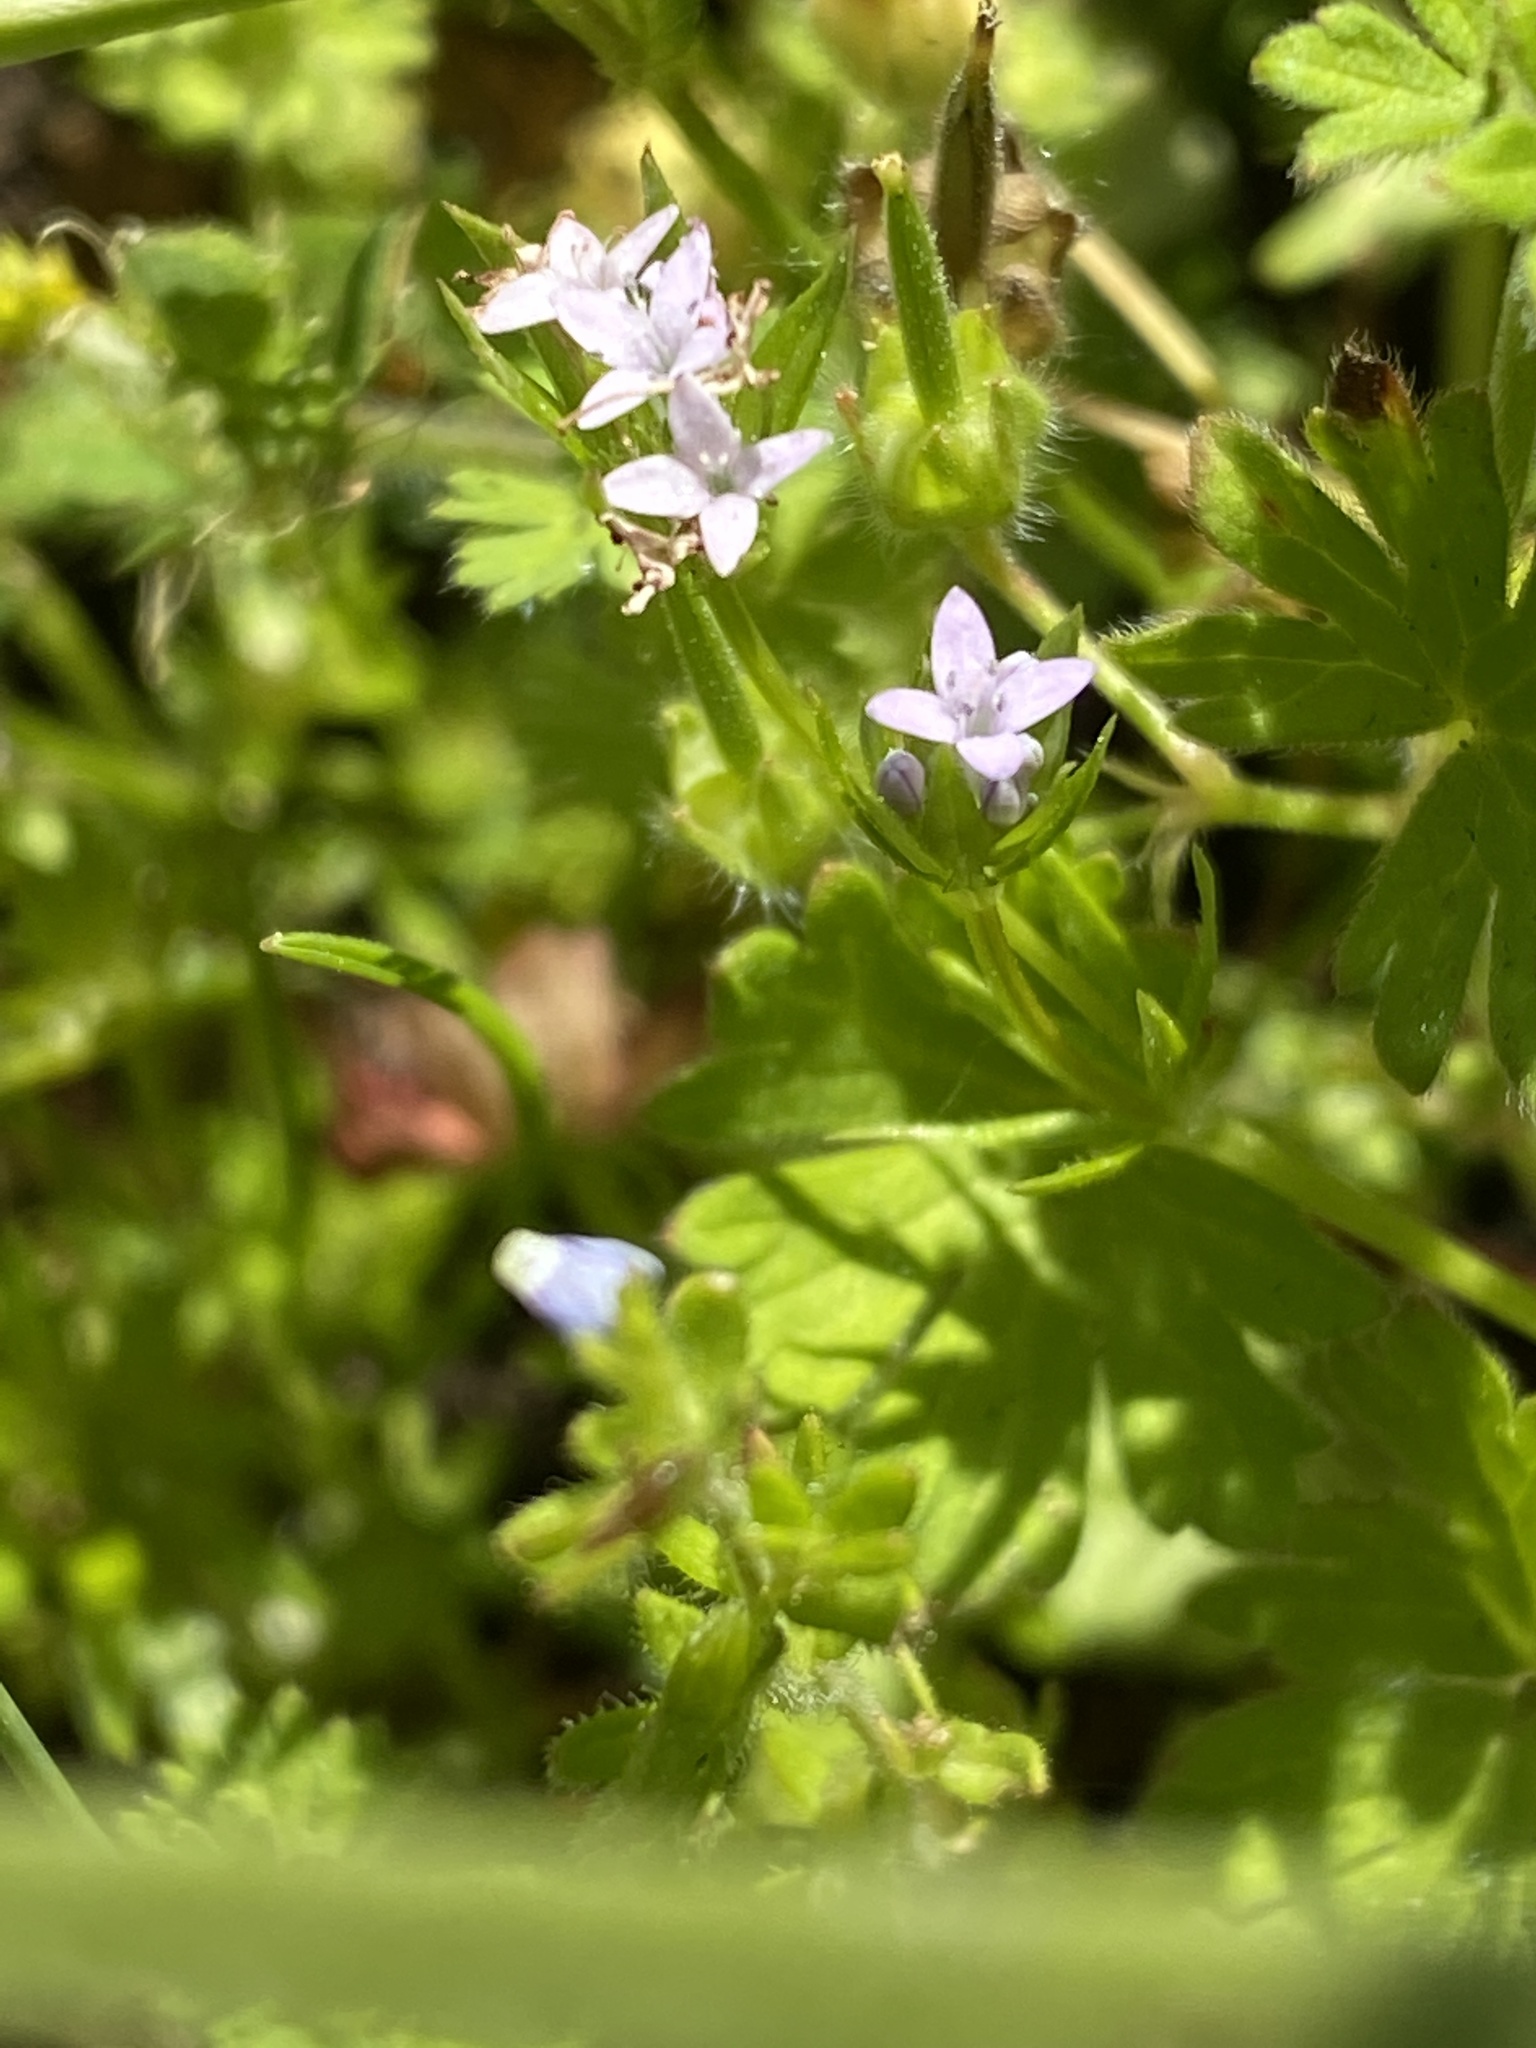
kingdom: Plantae
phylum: Tracheophyta
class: Magnoliopsida
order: Gentianales
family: Rubiaceae
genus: Sherardia
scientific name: Sherardia arvensis
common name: Field madder
